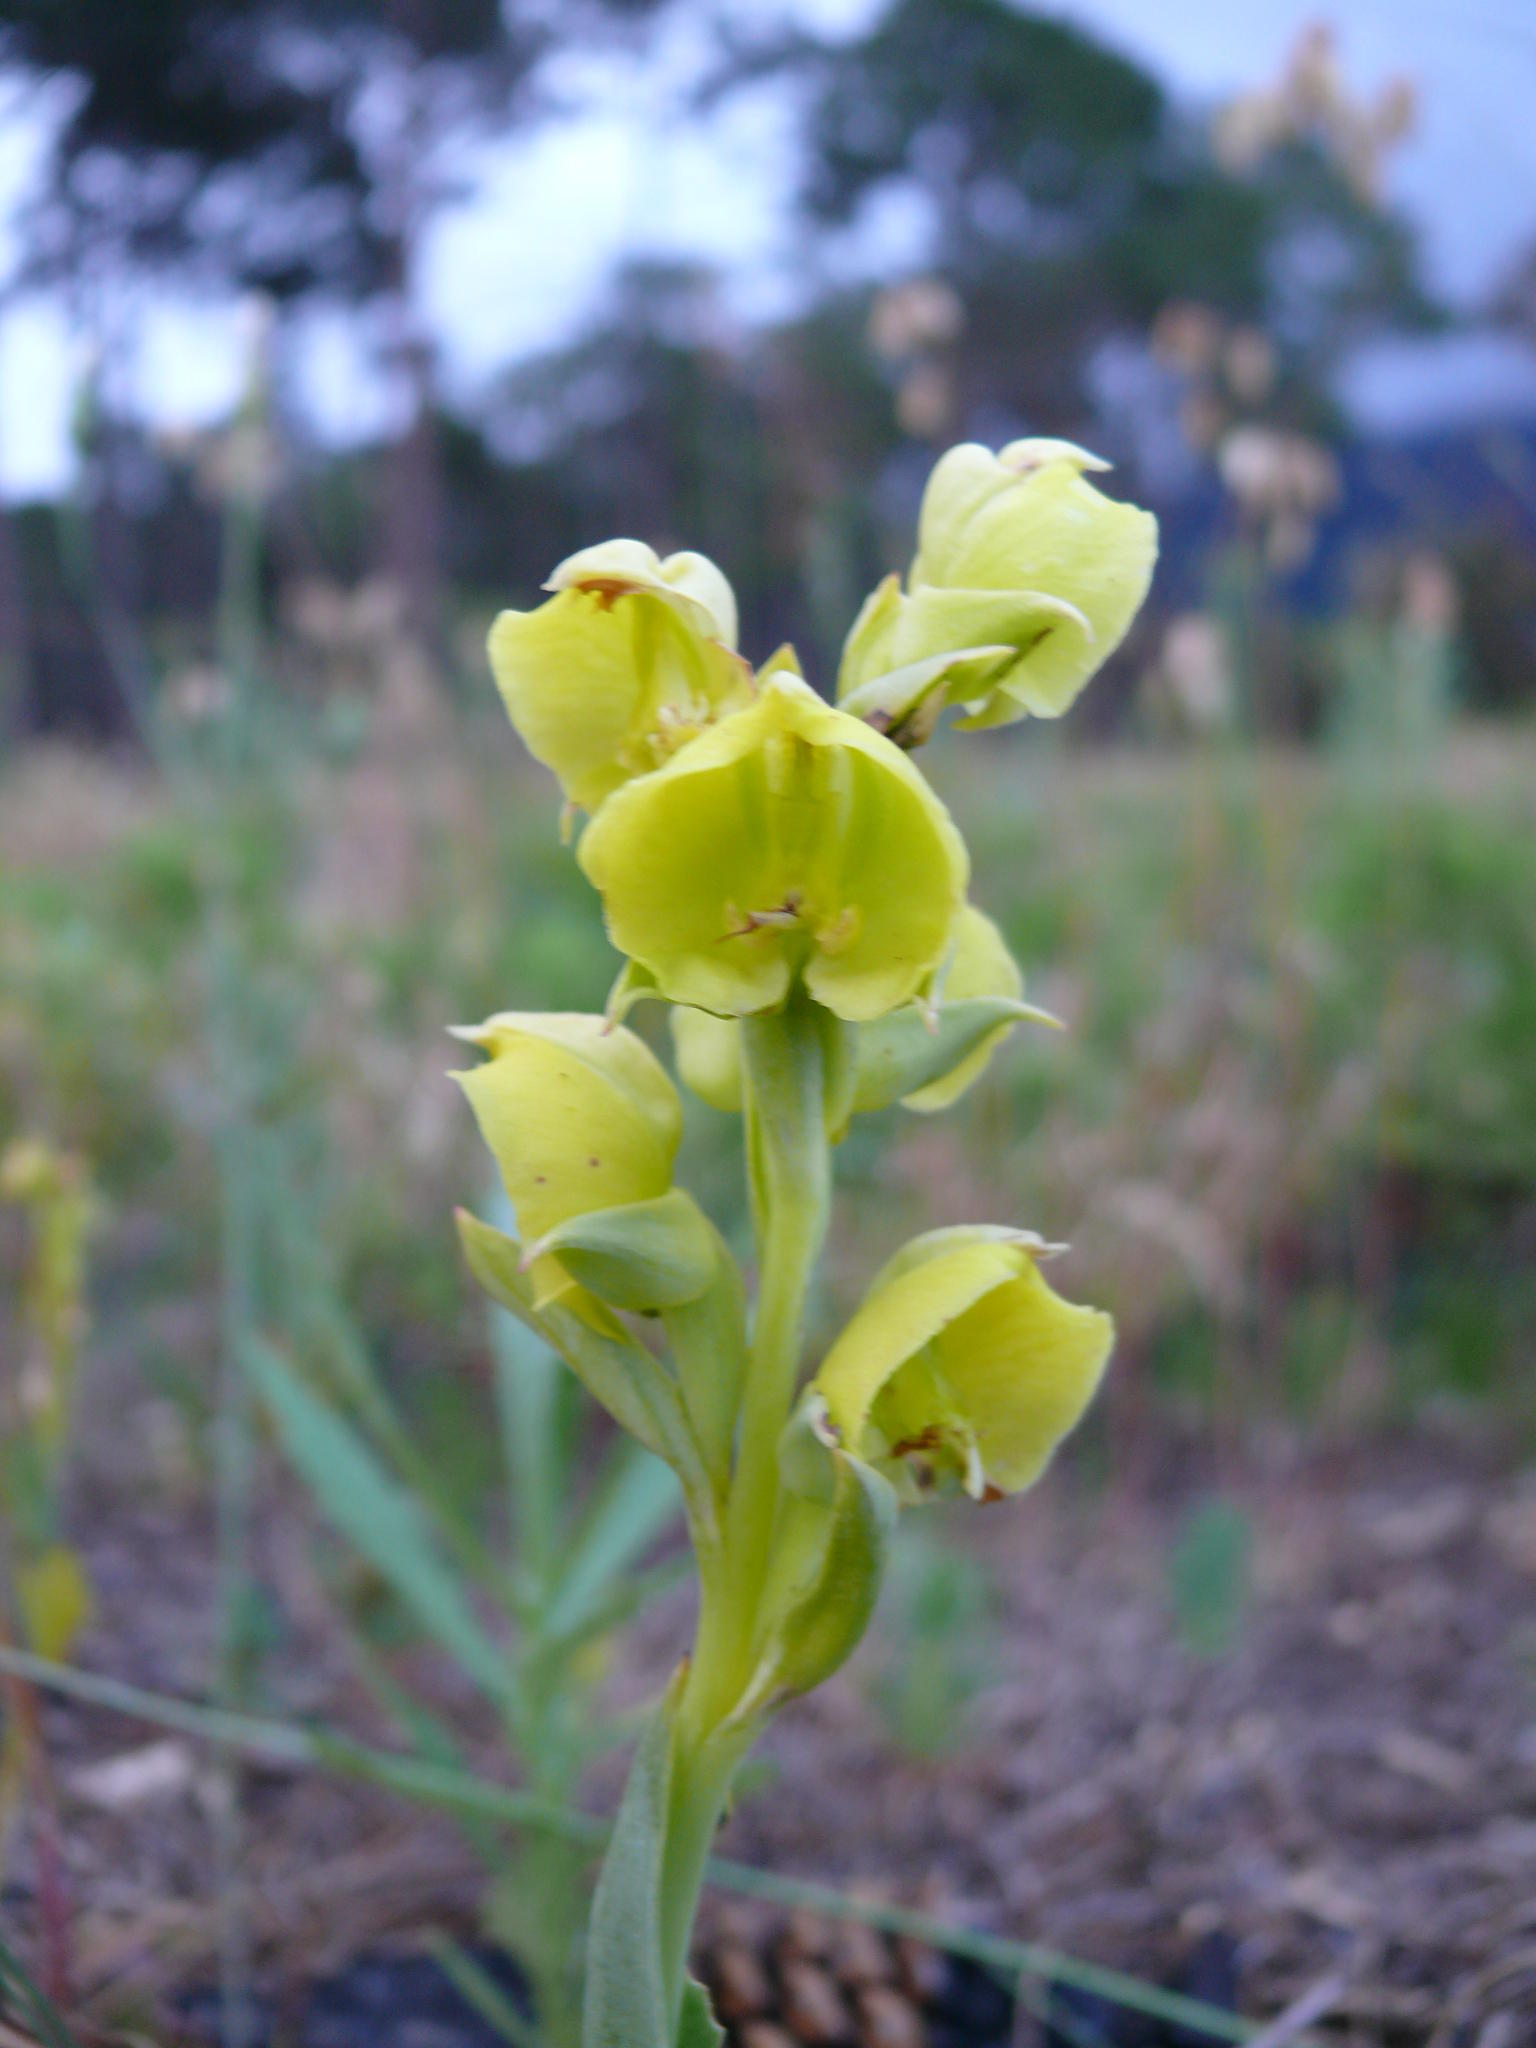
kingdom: Plantae
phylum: Tracheophyta
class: Liliopsida
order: Asparagales
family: Orchidaceae
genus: Pterygodium
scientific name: Pterygodium catholicum
